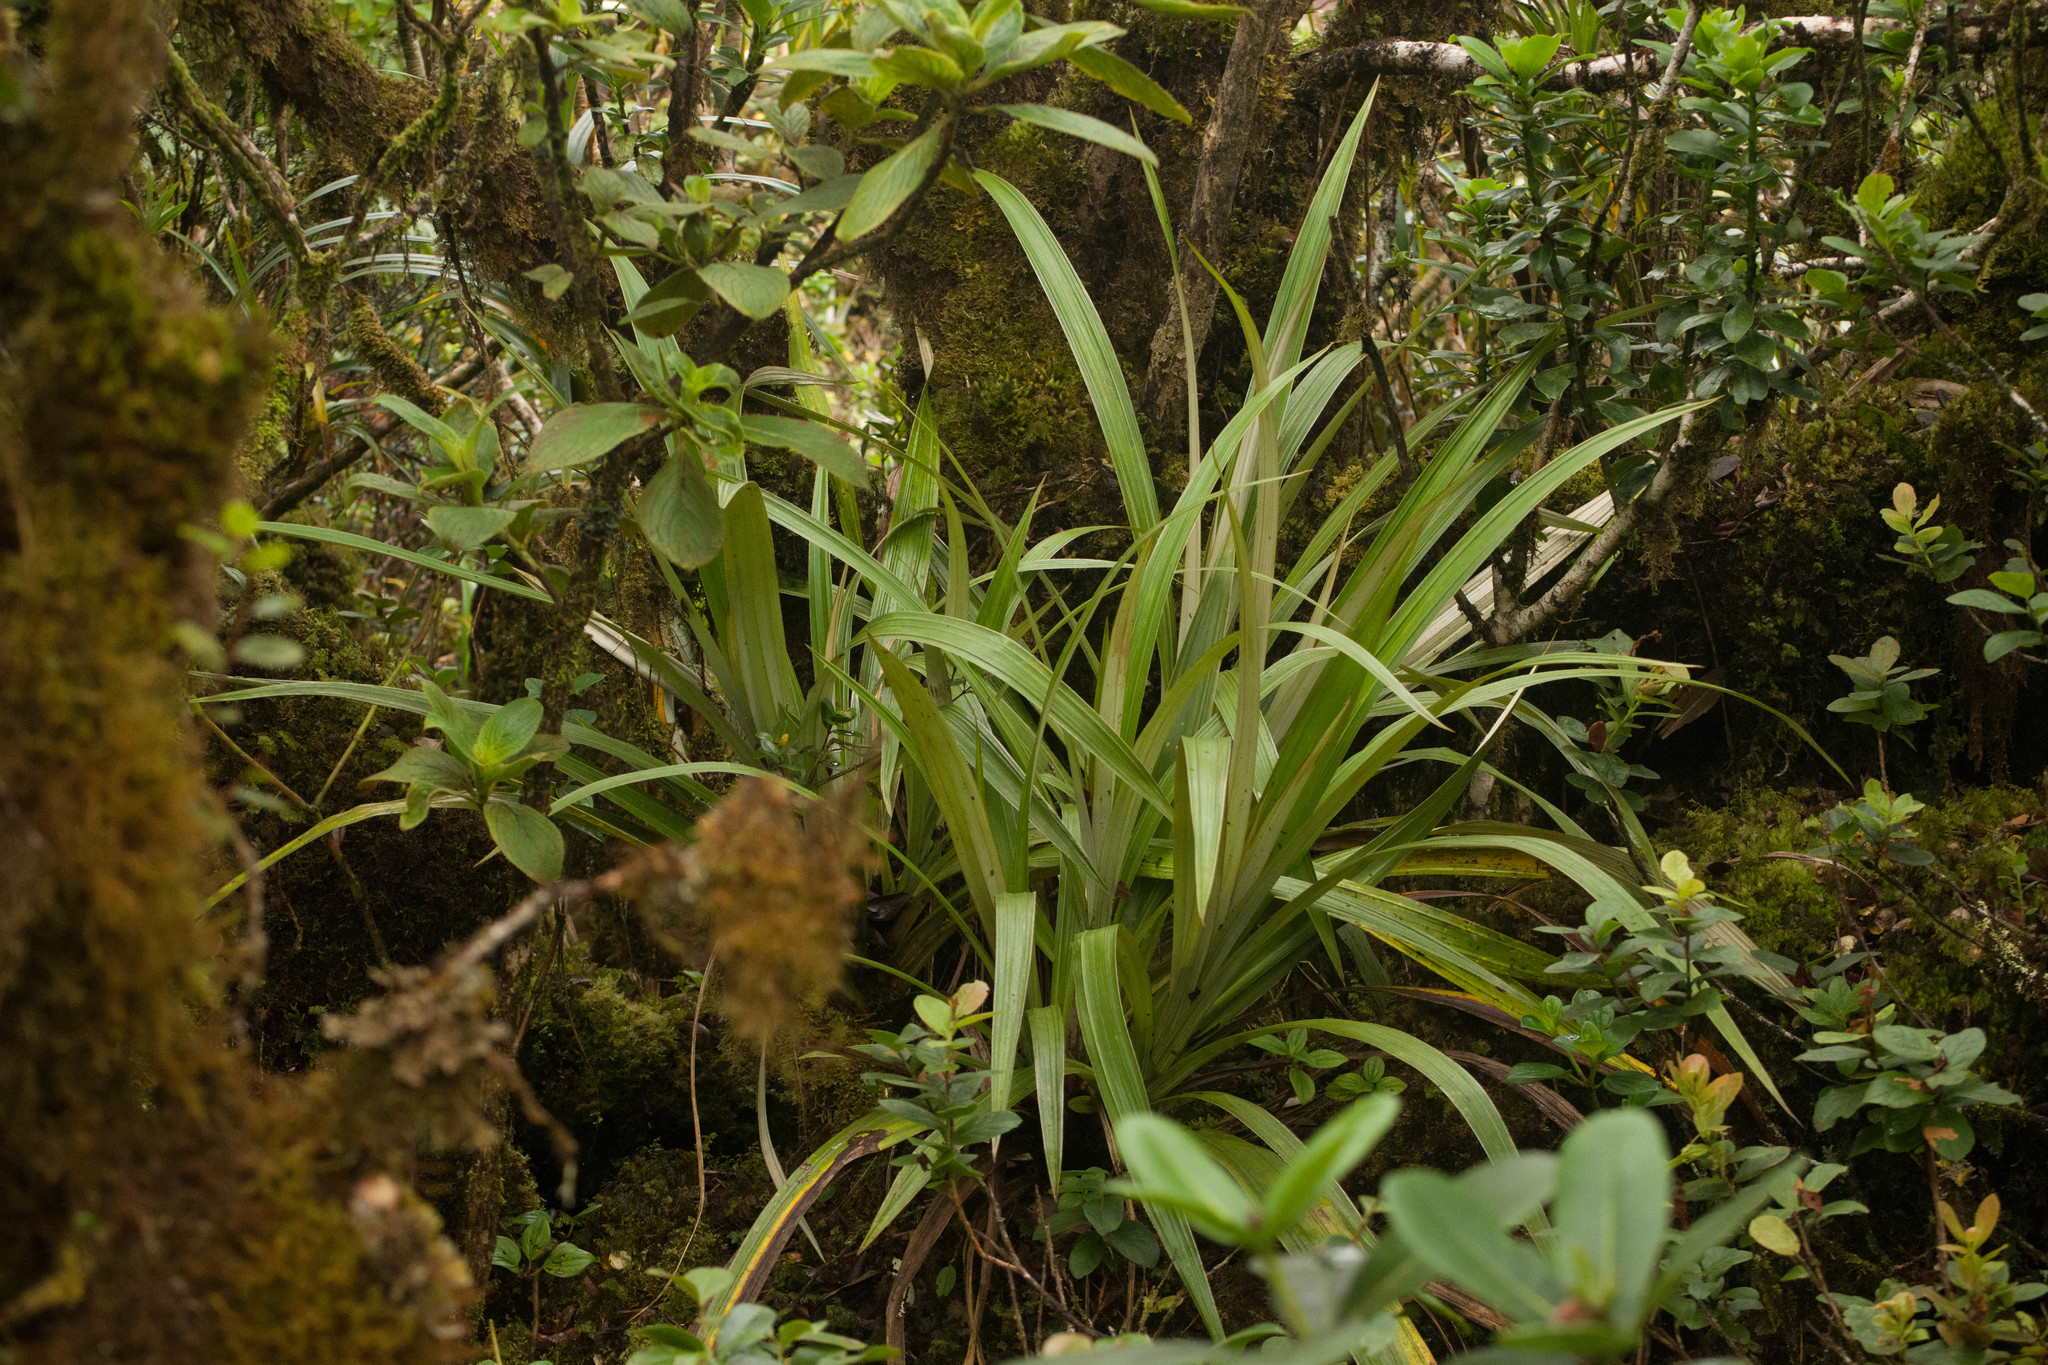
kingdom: Plantae
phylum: Tracheophyta
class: Liliopsida
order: Asparagales
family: Asteliaceae
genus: Astelia
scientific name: Astelia menziesiana
